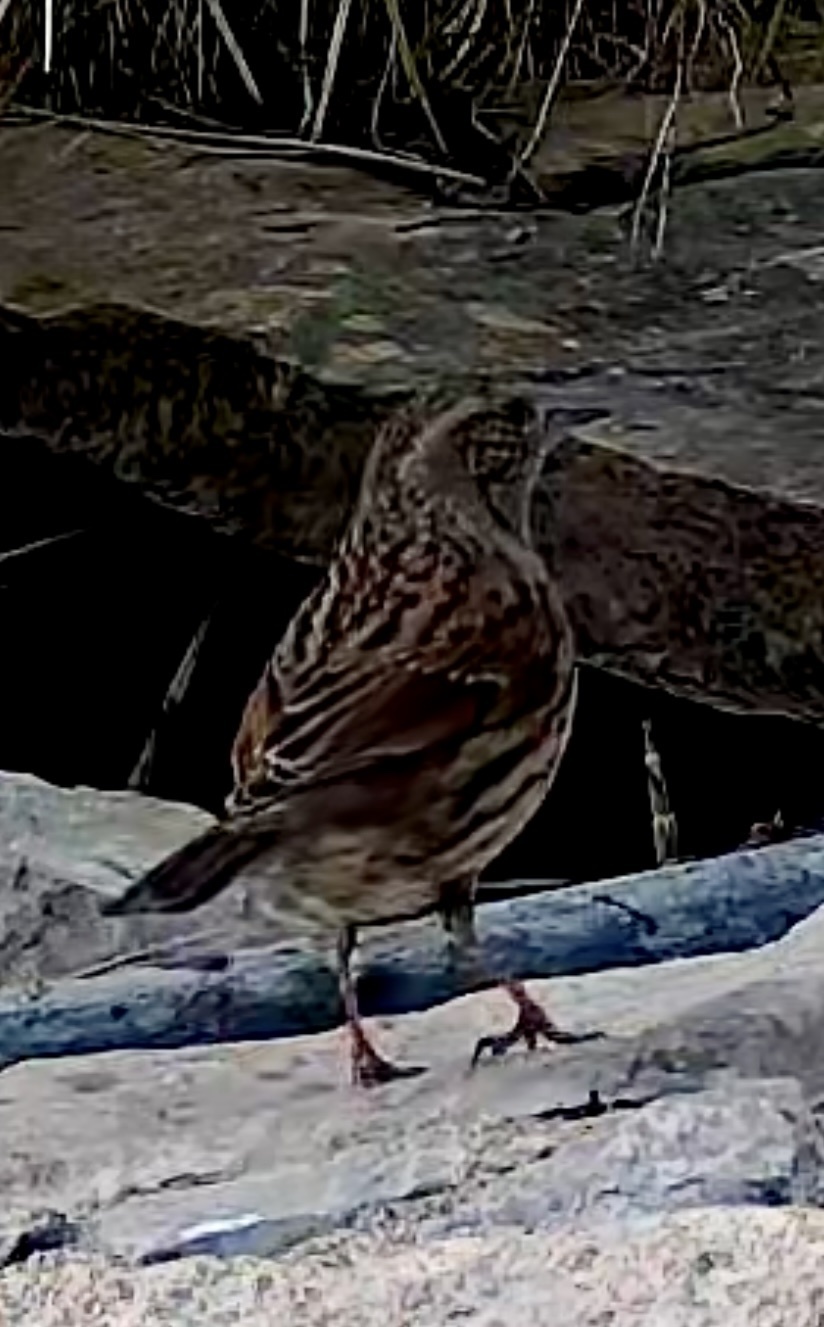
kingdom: Animalia
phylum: Chordata
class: Aves
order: Passeriformes
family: Prunellidae
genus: Prunella
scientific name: Prunella modularis
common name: Dunnock
